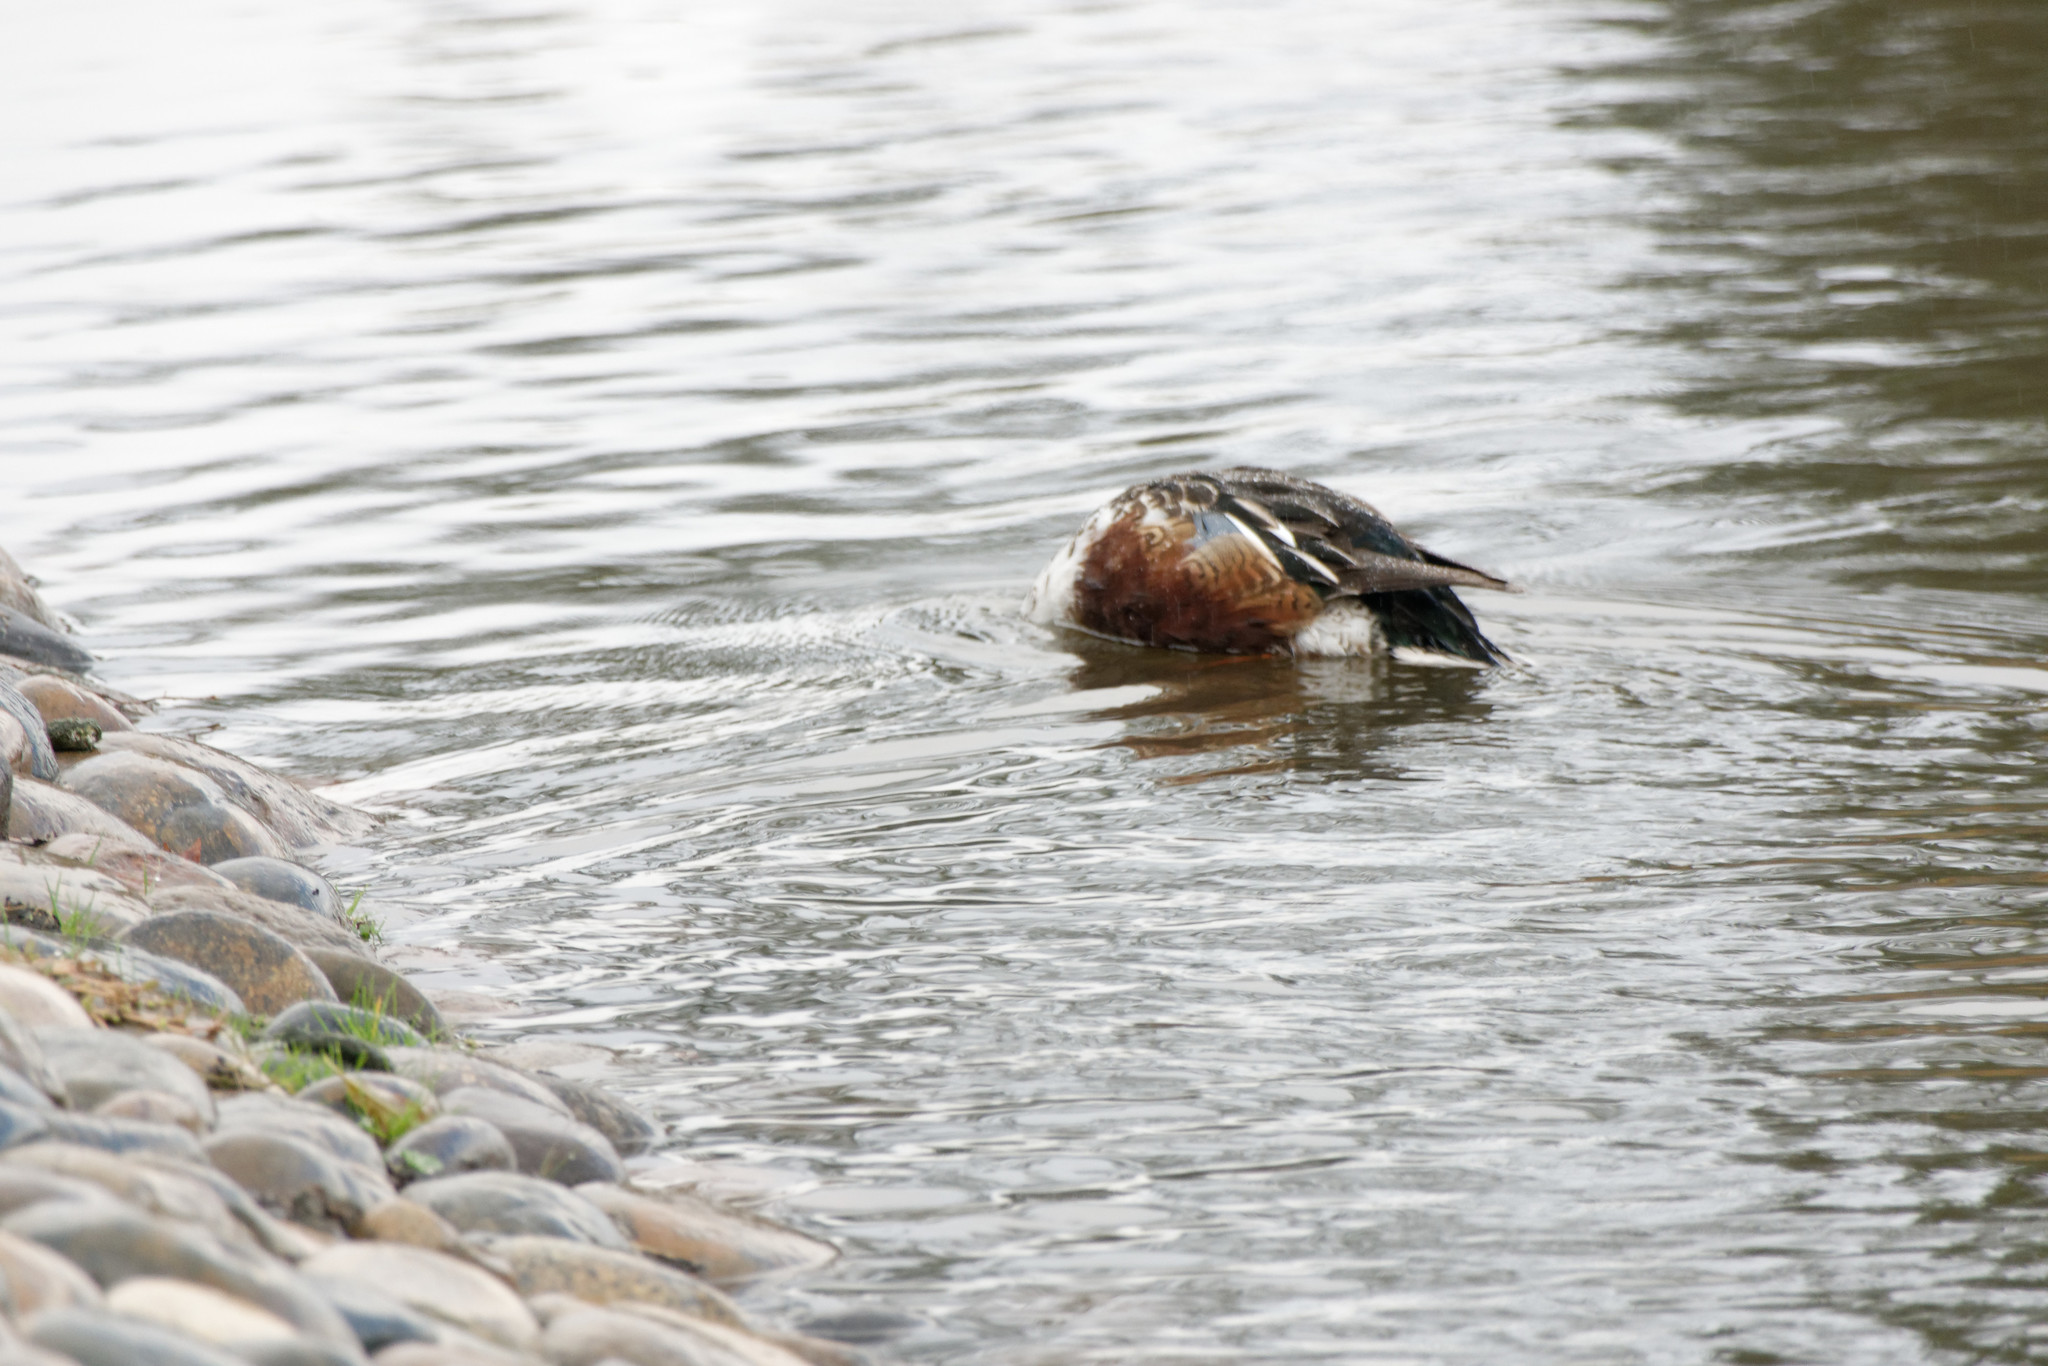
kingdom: Animalia
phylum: Chordata
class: Aves
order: Anseriformes
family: Anatidae
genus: Spatula
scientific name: Spatula clypeata
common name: Northern shoveler
